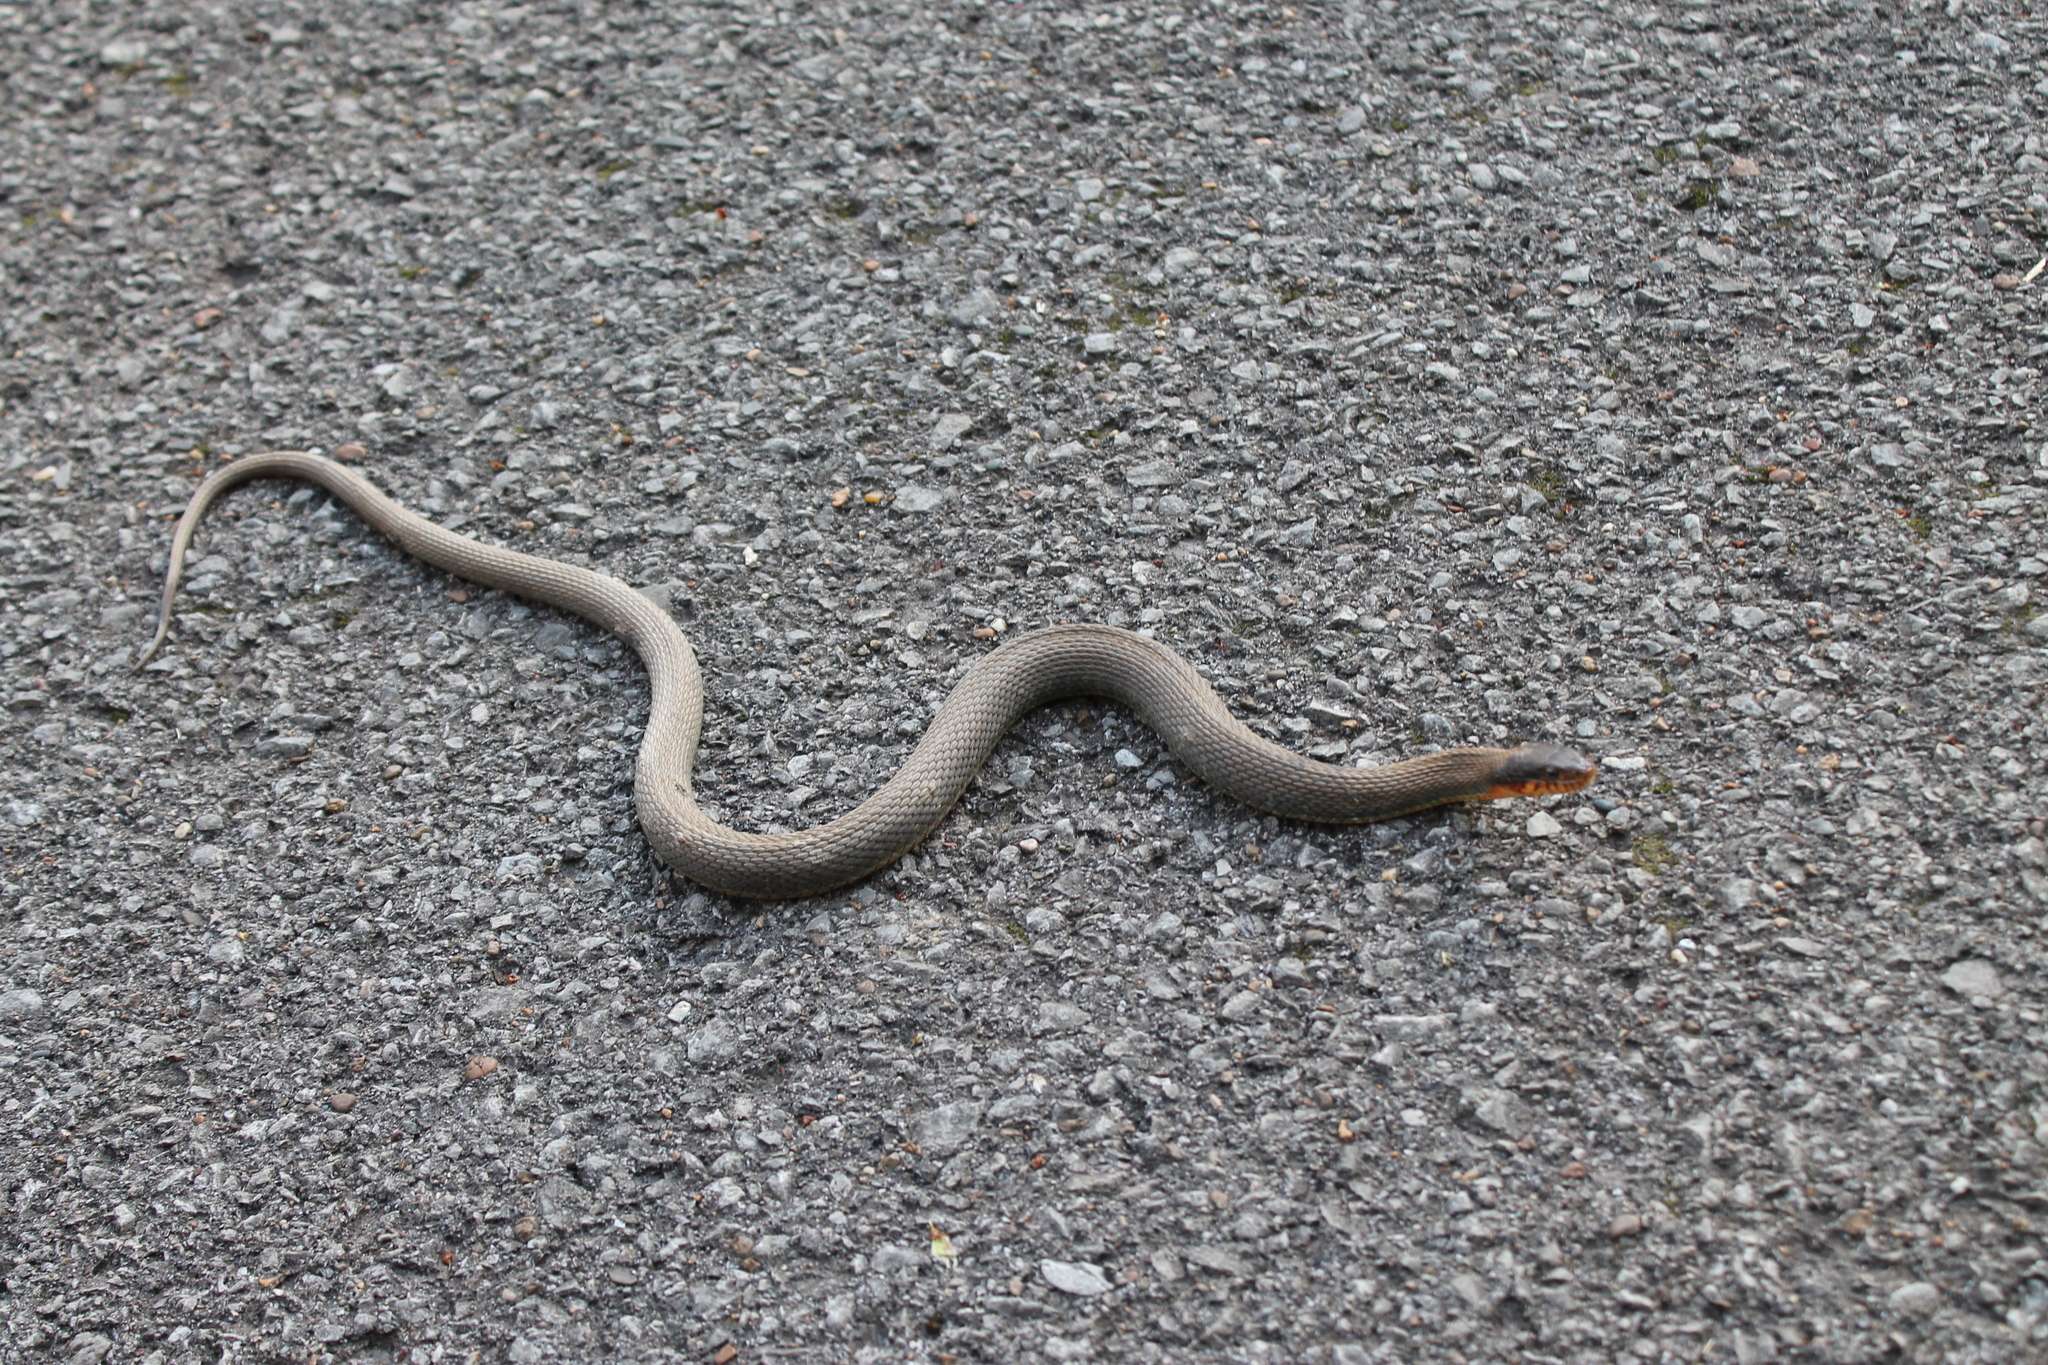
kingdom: Animalia
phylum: Chordata
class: Squamata
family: Colubridae
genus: Nerodia
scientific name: Nerodia erythrogaster
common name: Plainbelly water snake
